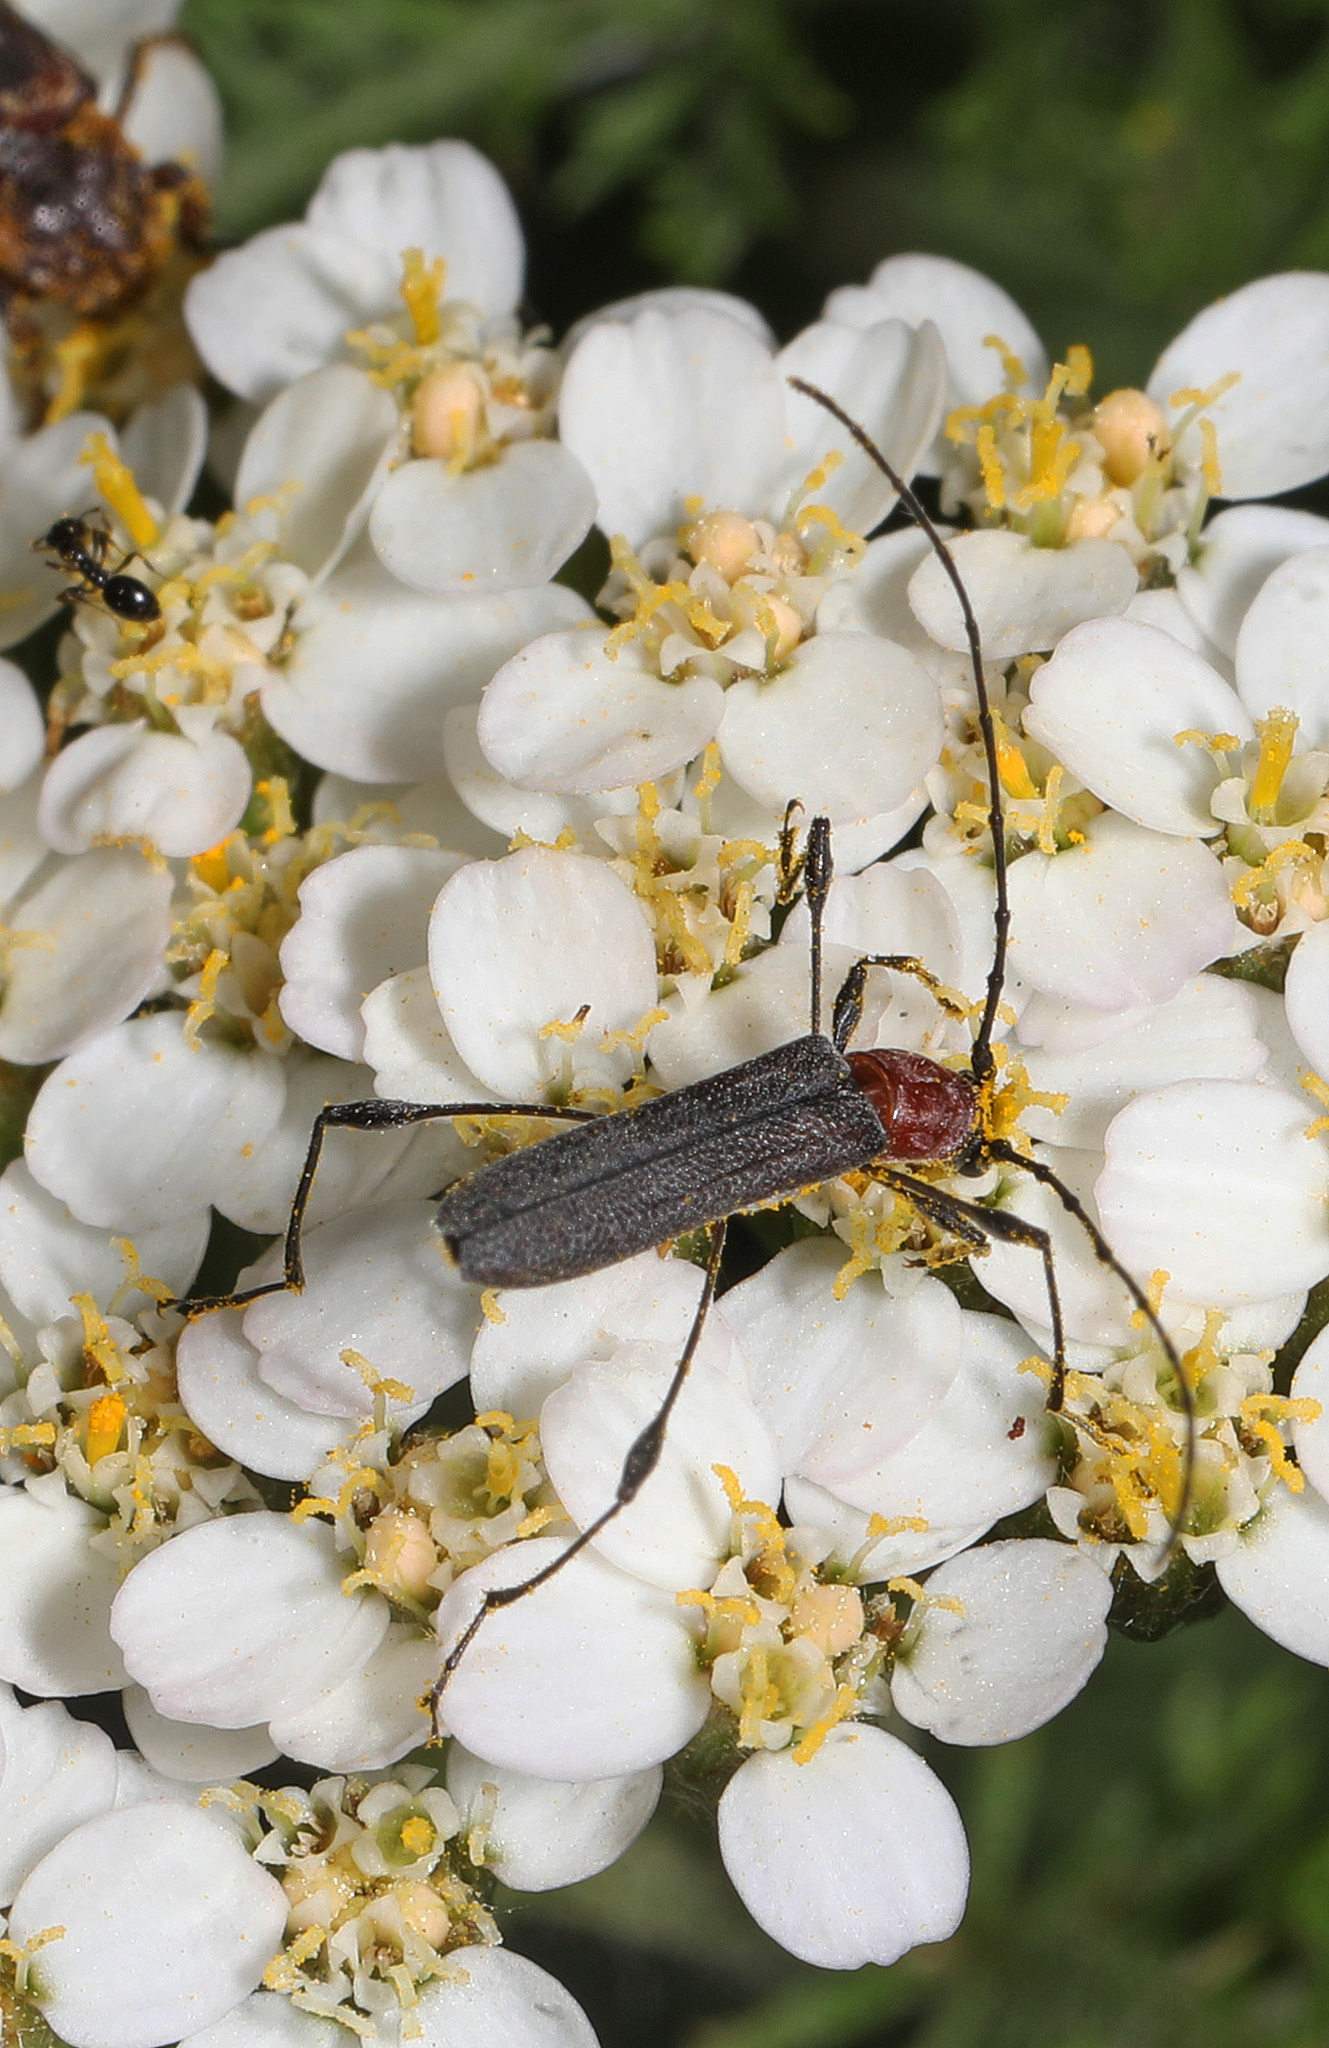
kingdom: Animalia
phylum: Arthropoda
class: Insecta
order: Coleoptera
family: Cerambycidae
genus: Rhopalophora
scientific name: Rhopalophora longipes
